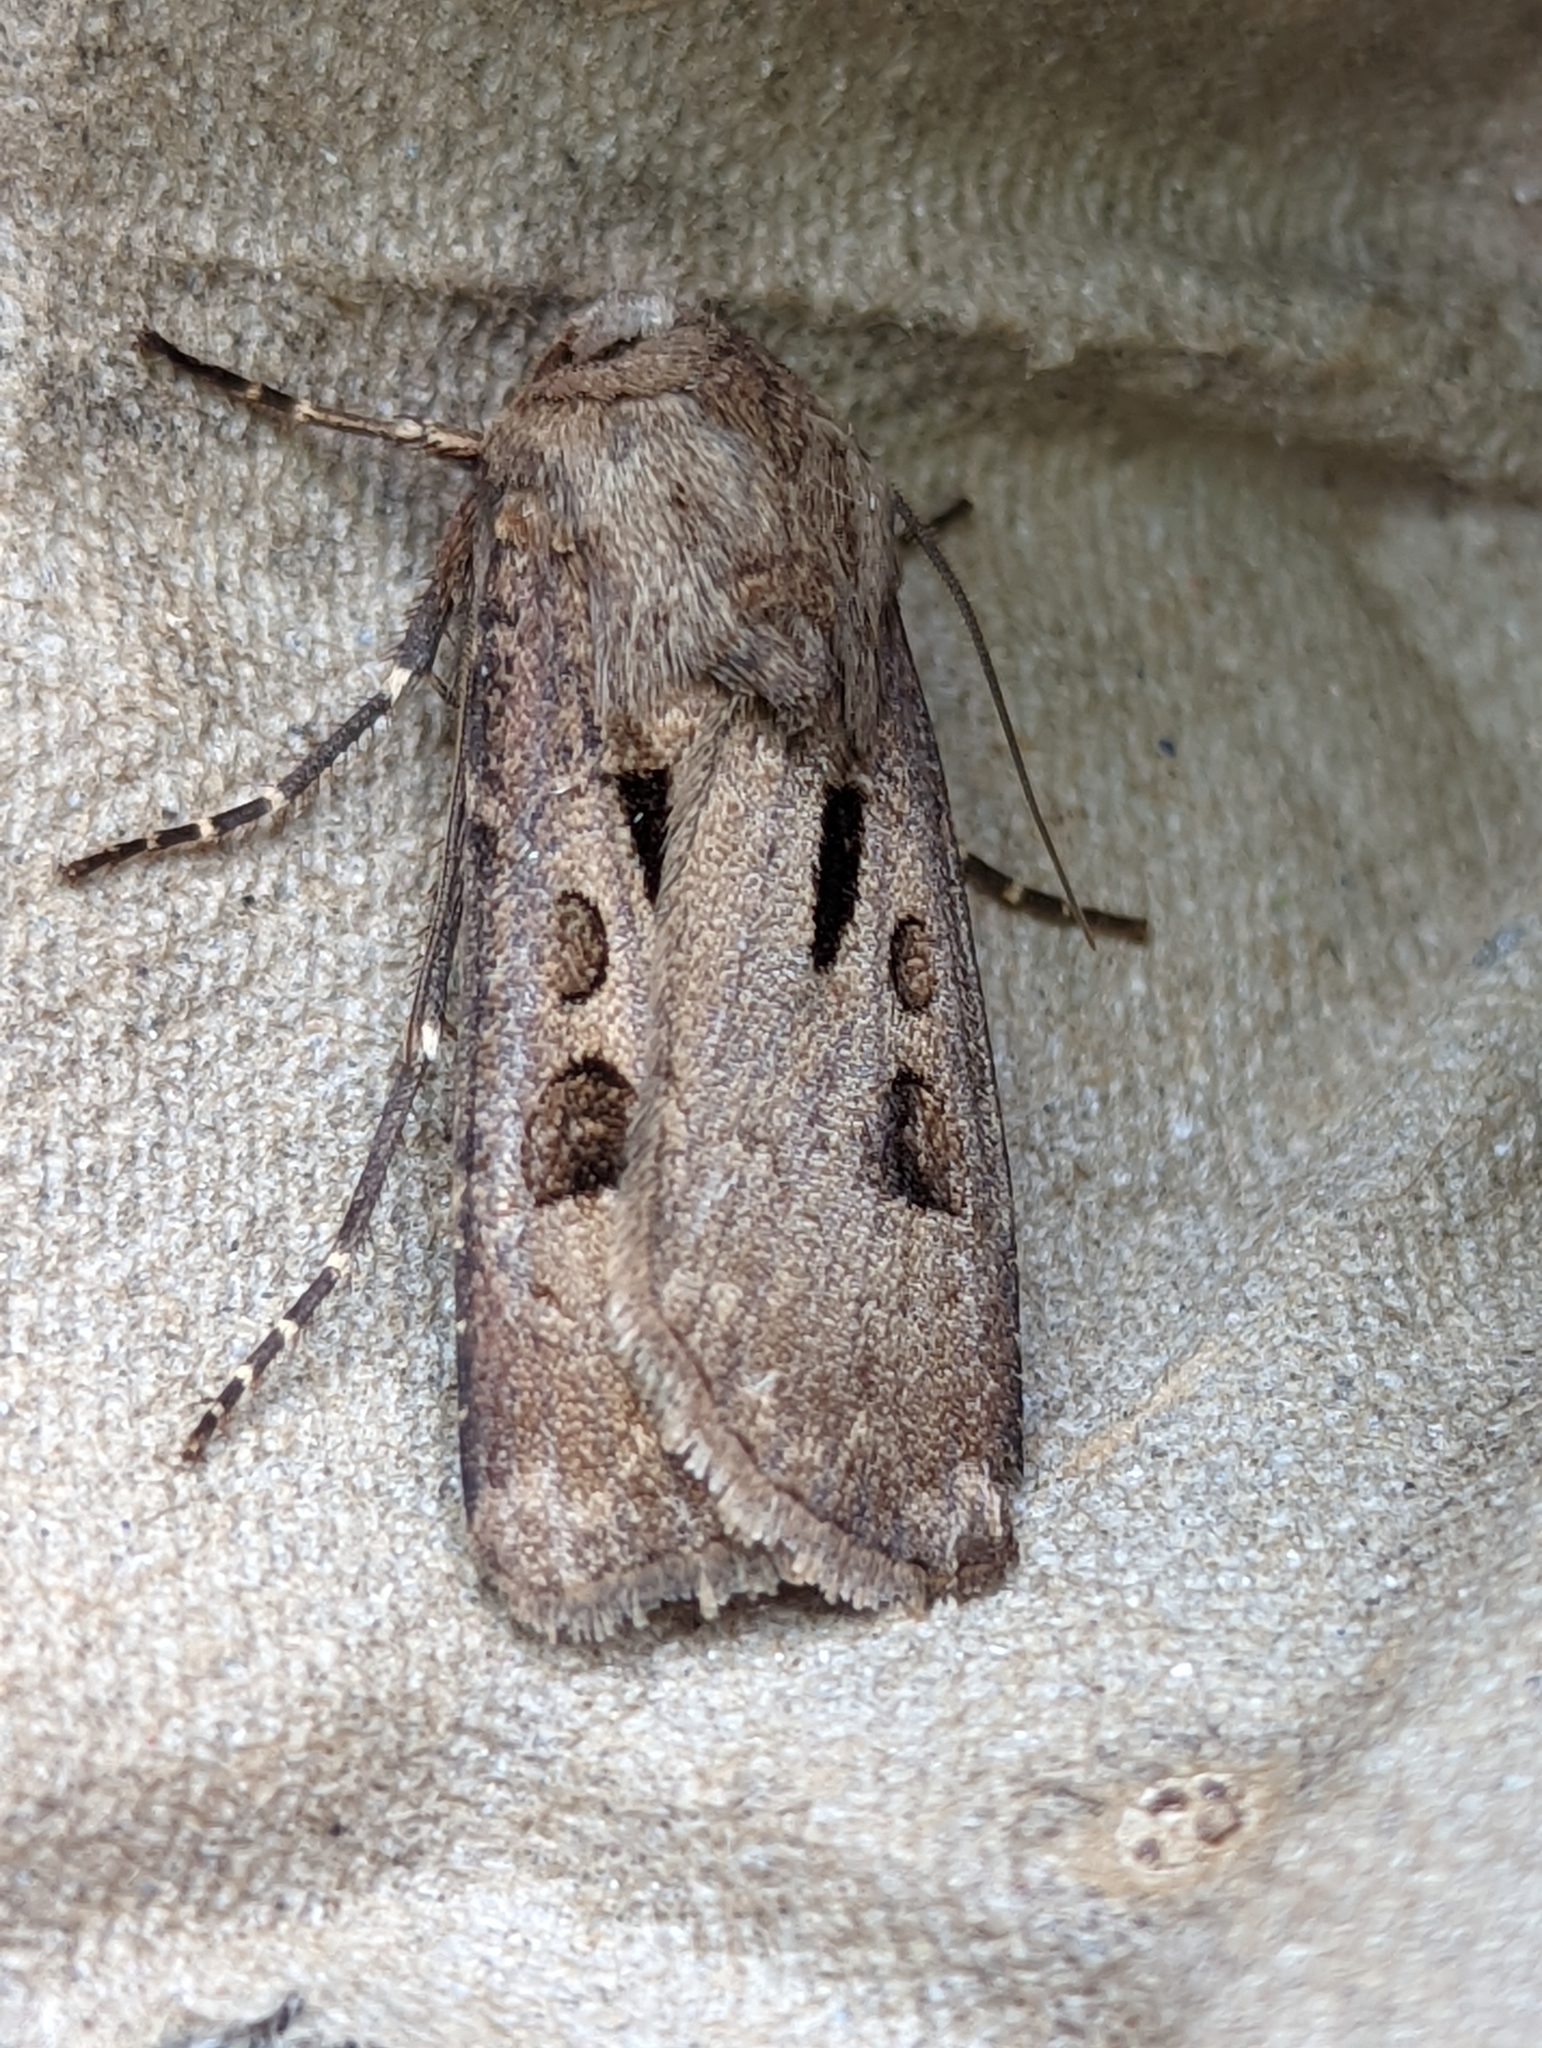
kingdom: Animalia
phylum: Arthropoda
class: Insecta
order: Lepidoptera
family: Noctuidae
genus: Agrotis
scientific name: Agrotis exclamationis
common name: Heart and dart
